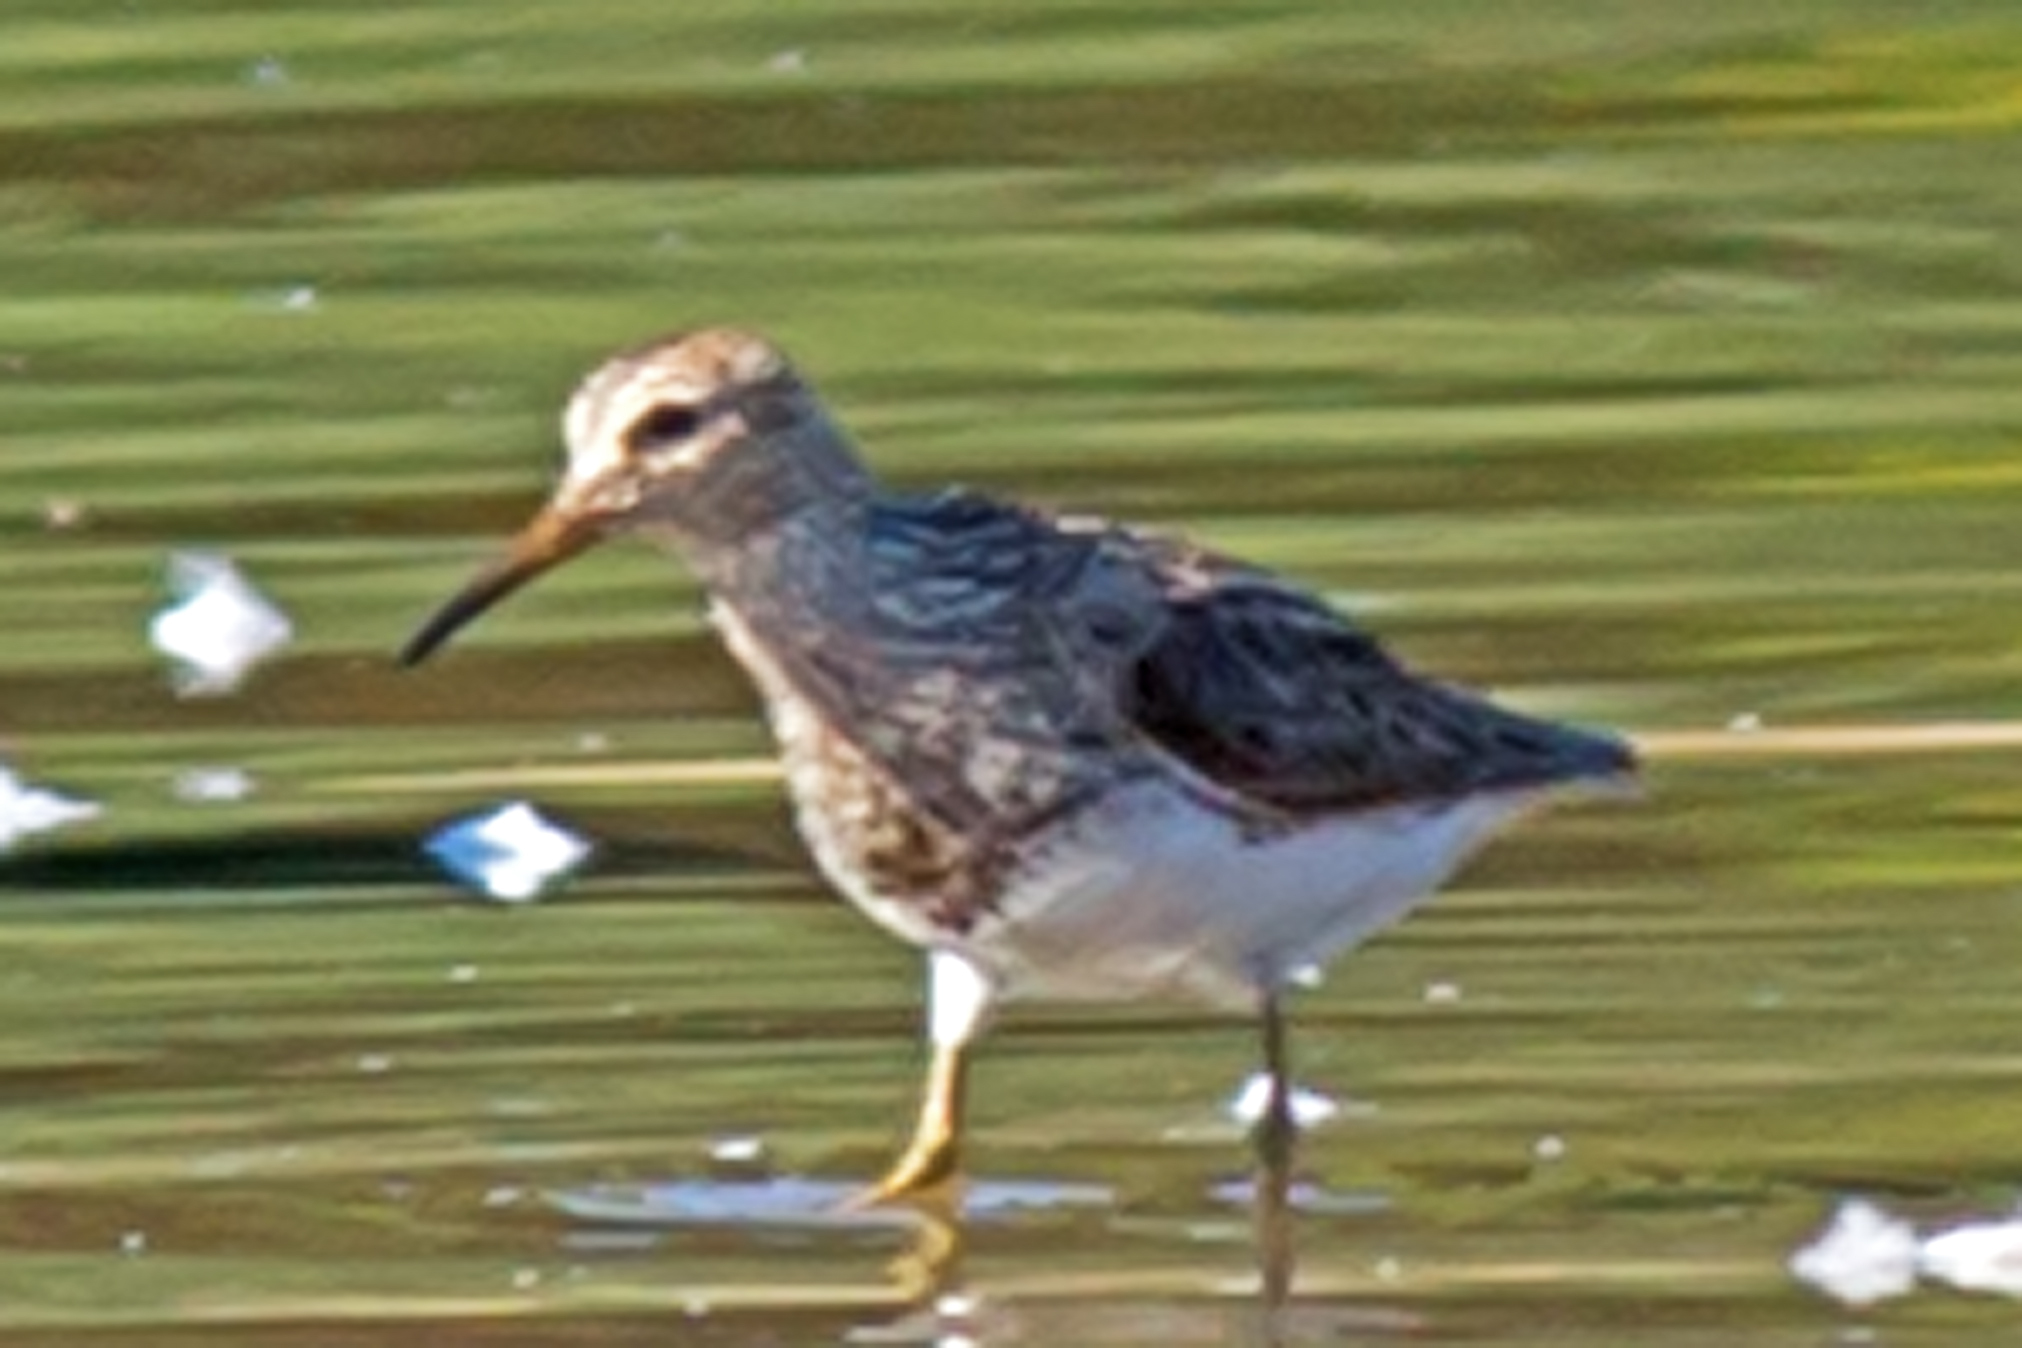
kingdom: Animalia
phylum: Chordata
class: Aves
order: Charadriiformes
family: Scolopacidae
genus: Calidris
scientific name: Calidris melanotos
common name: Pectoral sandpiper
